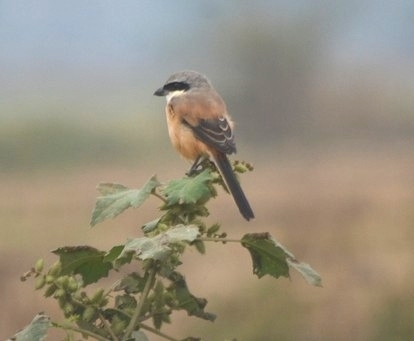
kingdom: Animalia
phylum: Chordata
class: Aves
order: Passeriformes
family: Laniidae
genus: Lanius
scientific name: Lanius schach
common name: Long-tailed shrike
